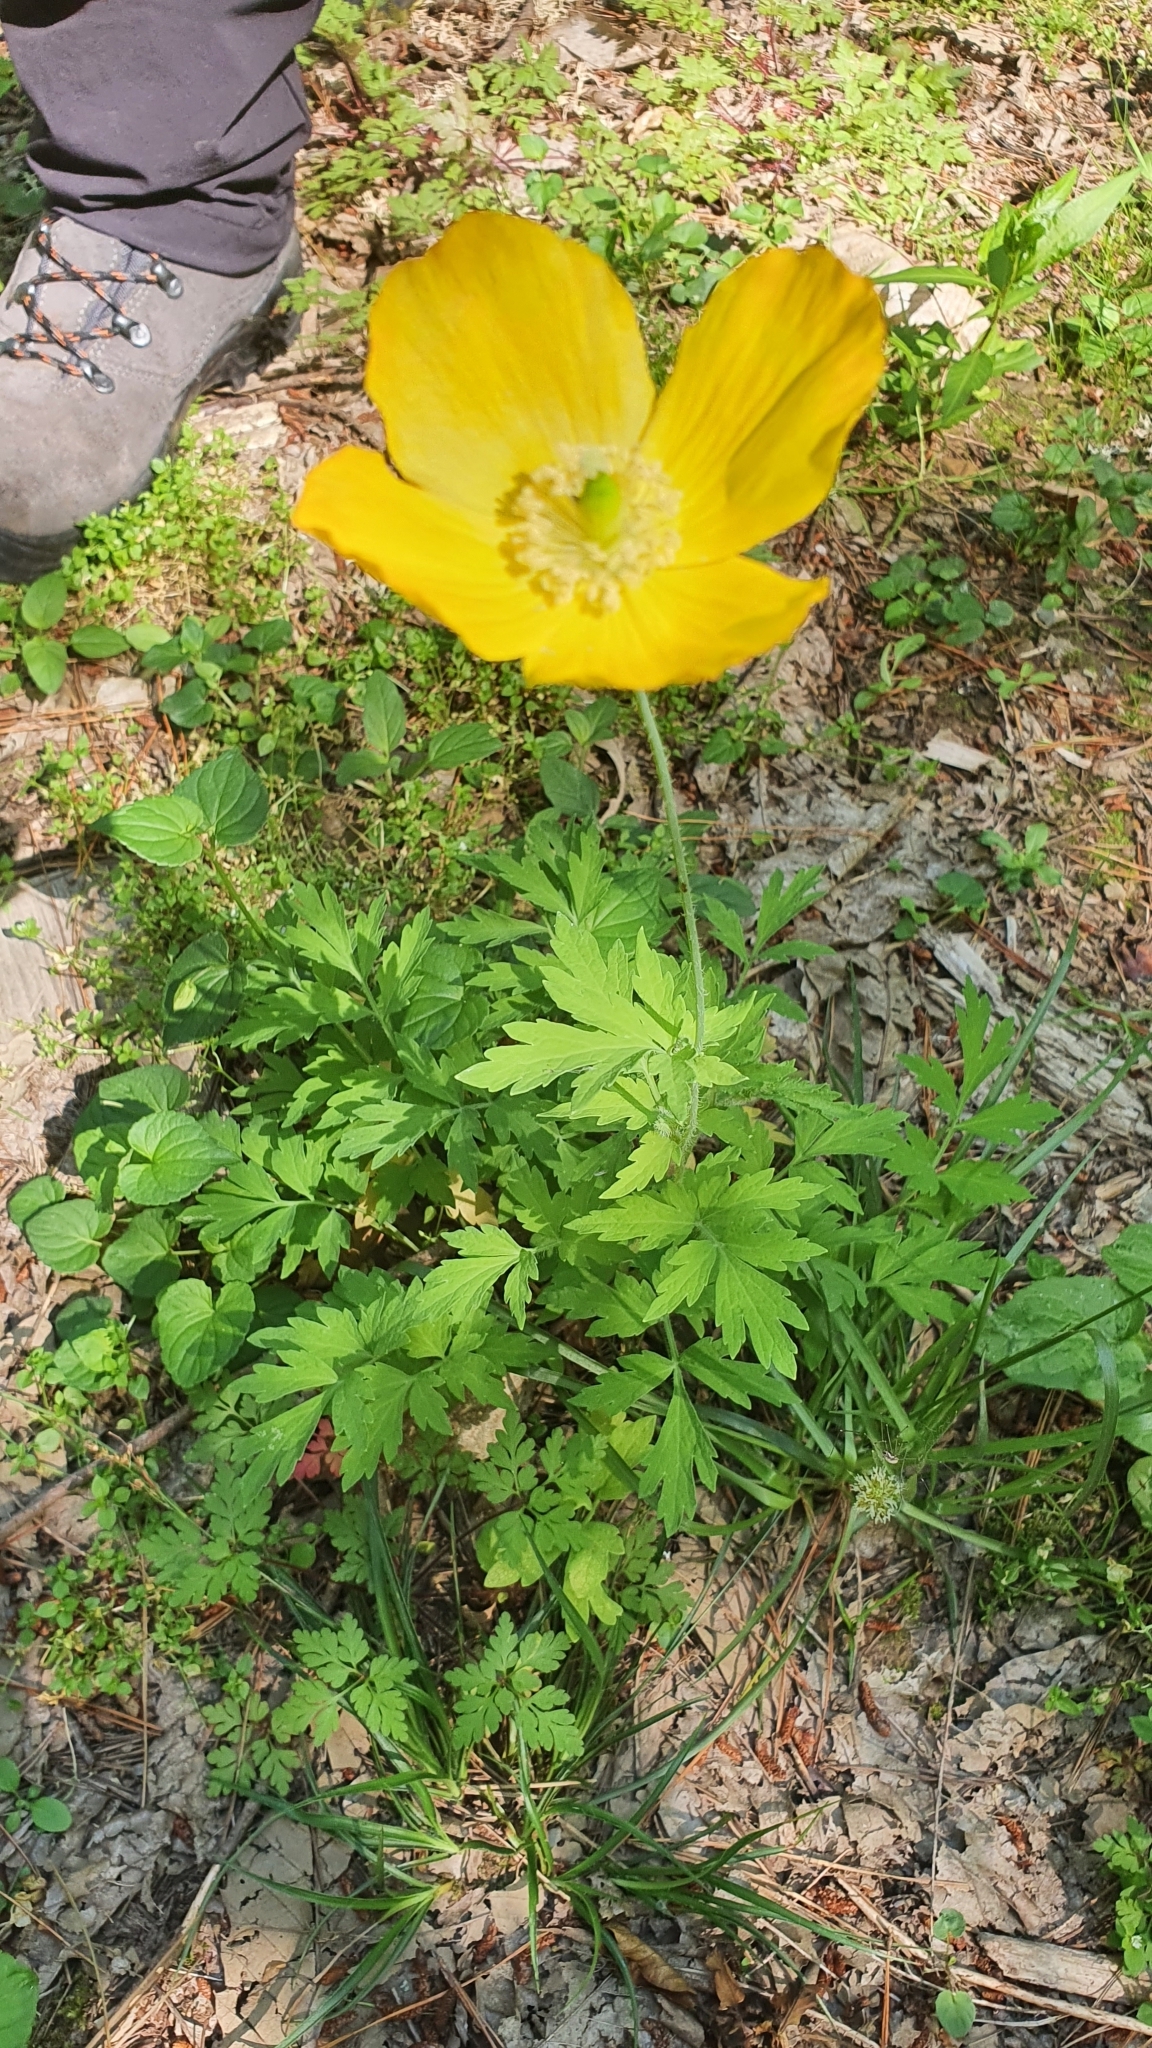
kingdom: Plantae
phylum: Tracheophyta
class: Magnoliopsida
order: Ranunculales
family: Papaveraceae
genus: Papaver
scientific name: Papaver cambricum
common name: Poppy
